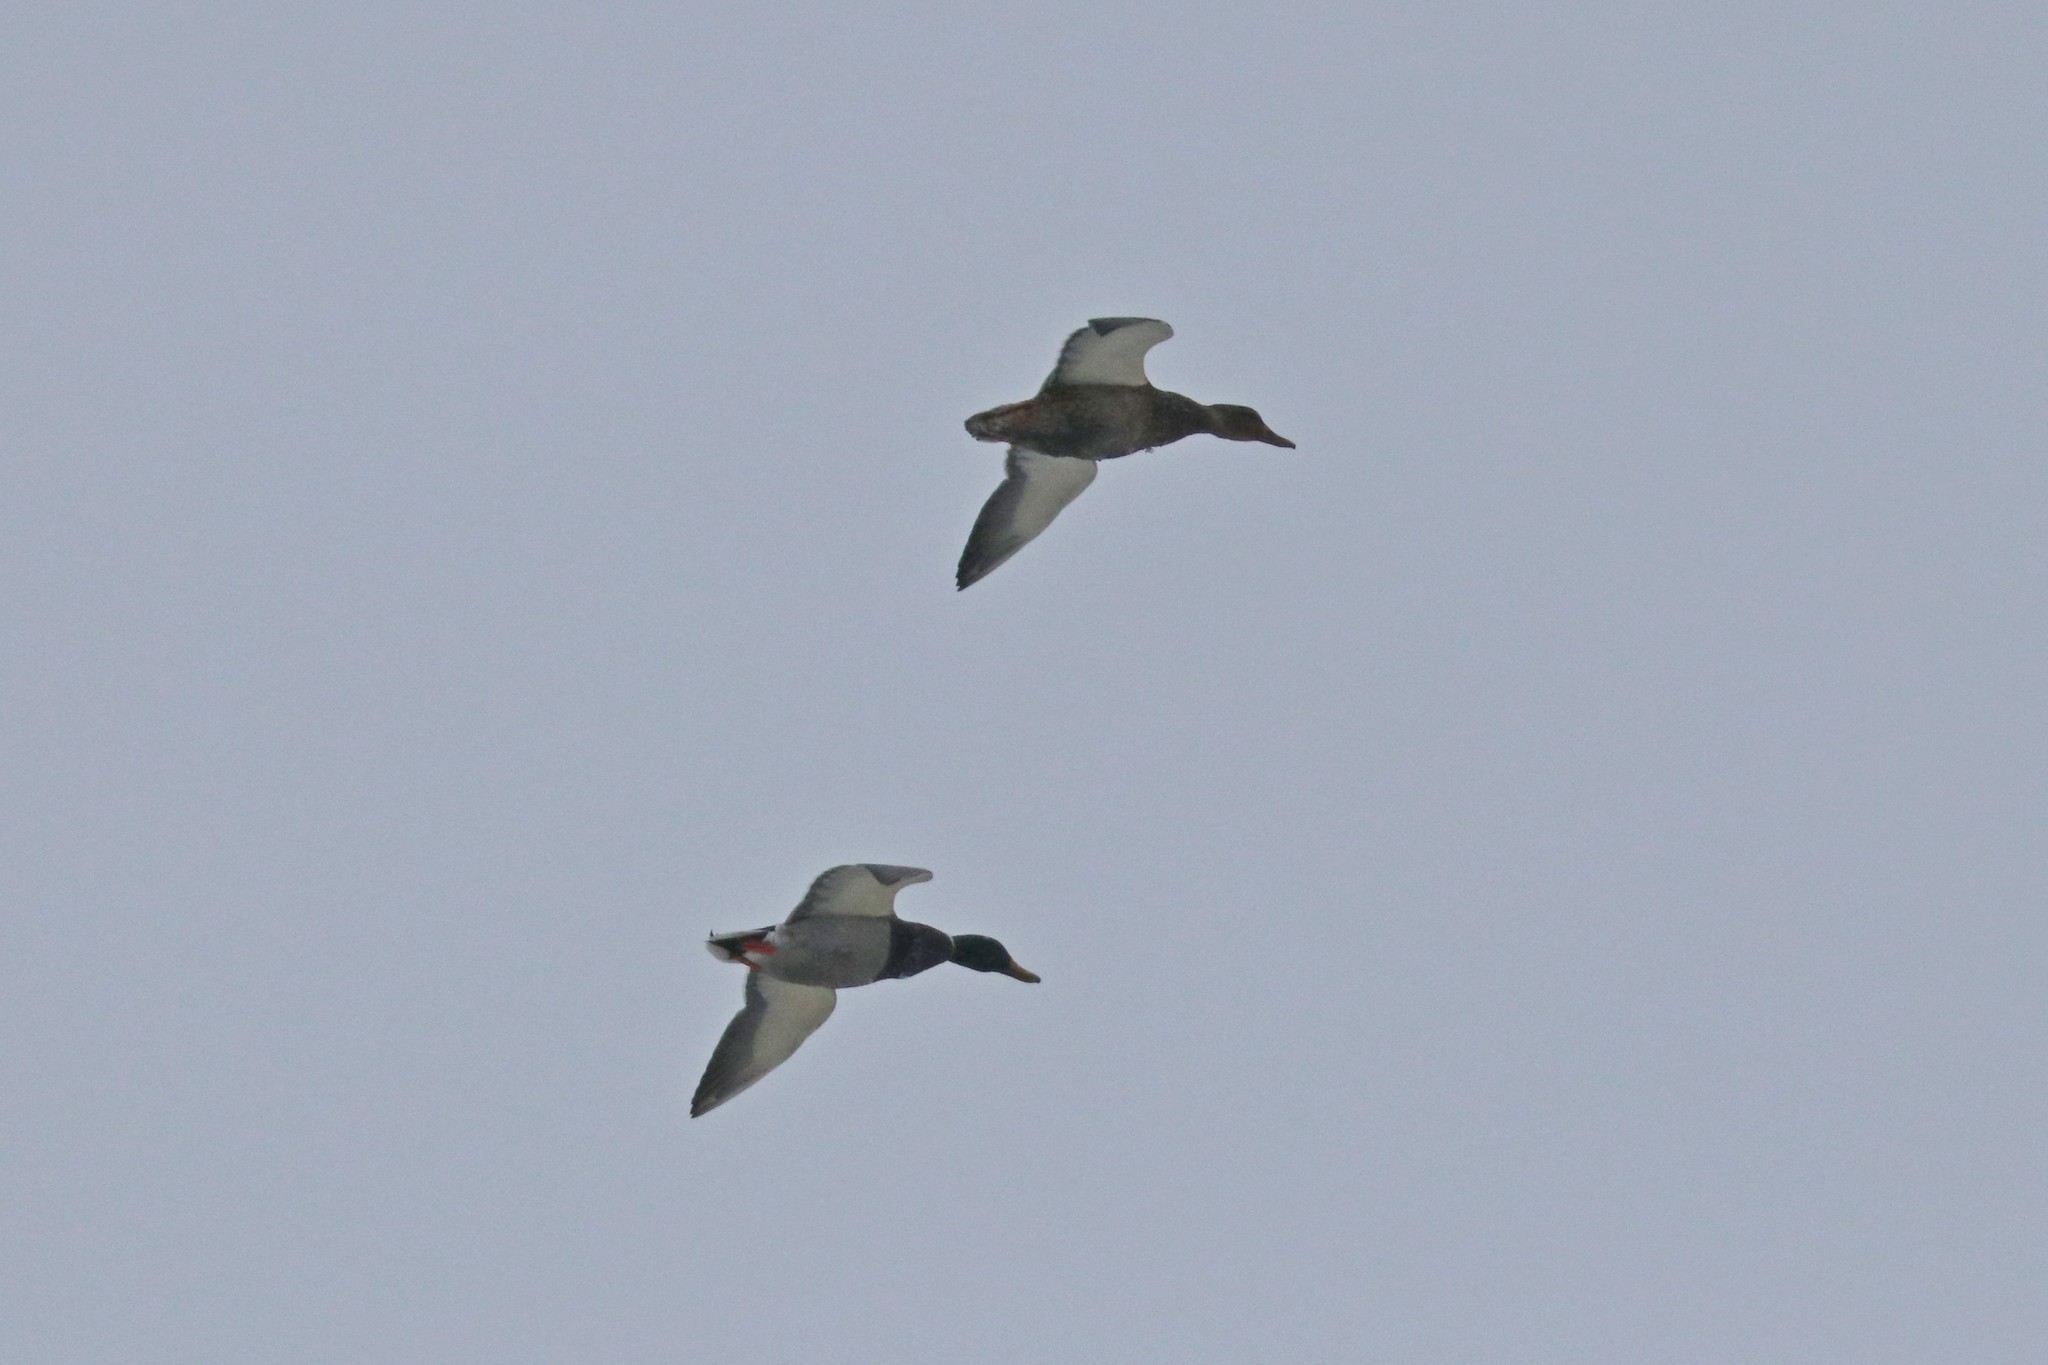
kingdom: Animalia
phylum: Chordata
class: Aves
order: Anseriformes
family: Anatidae
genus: Anas
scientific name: Anas platyrhynchos
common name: Mallard
